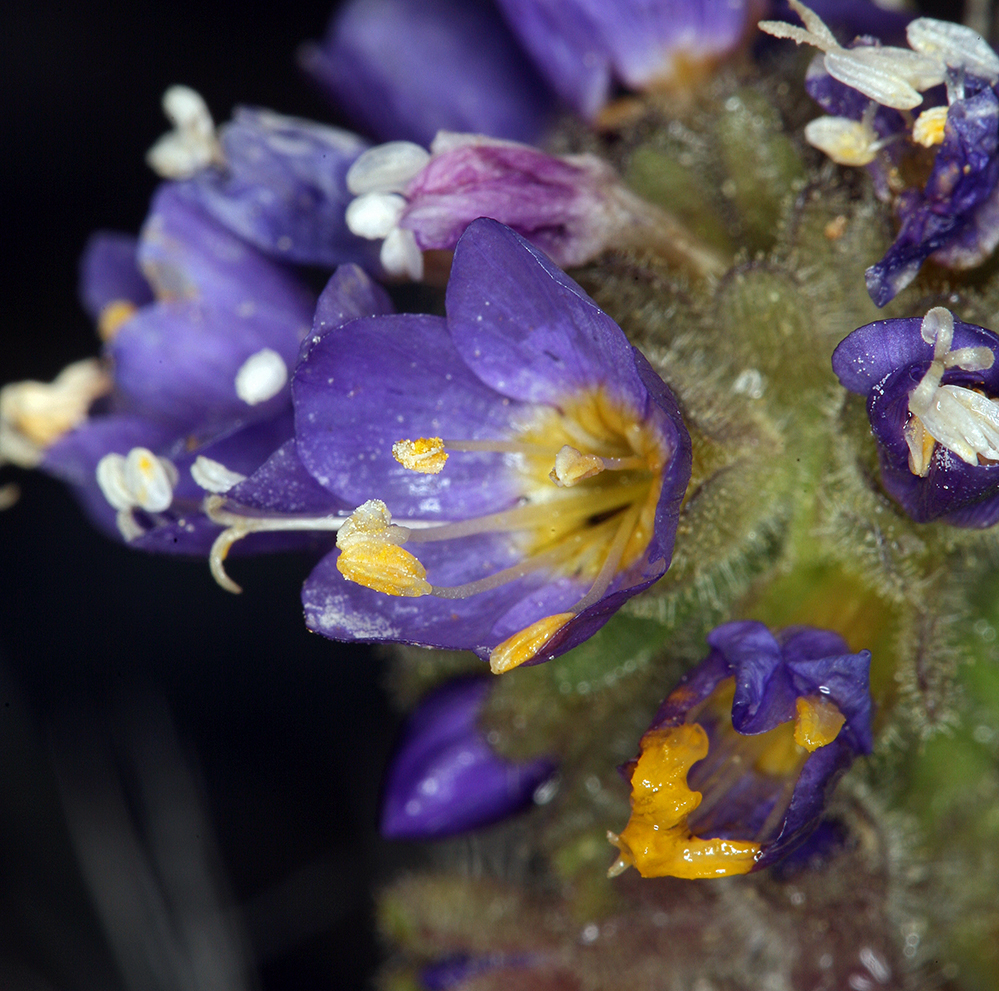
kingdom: Plantae
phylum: Tracheophyta
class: Magnoliopsida
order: Ericales
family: Polemoniaceae
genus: Polemonium
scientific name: Polemonium eddyense
